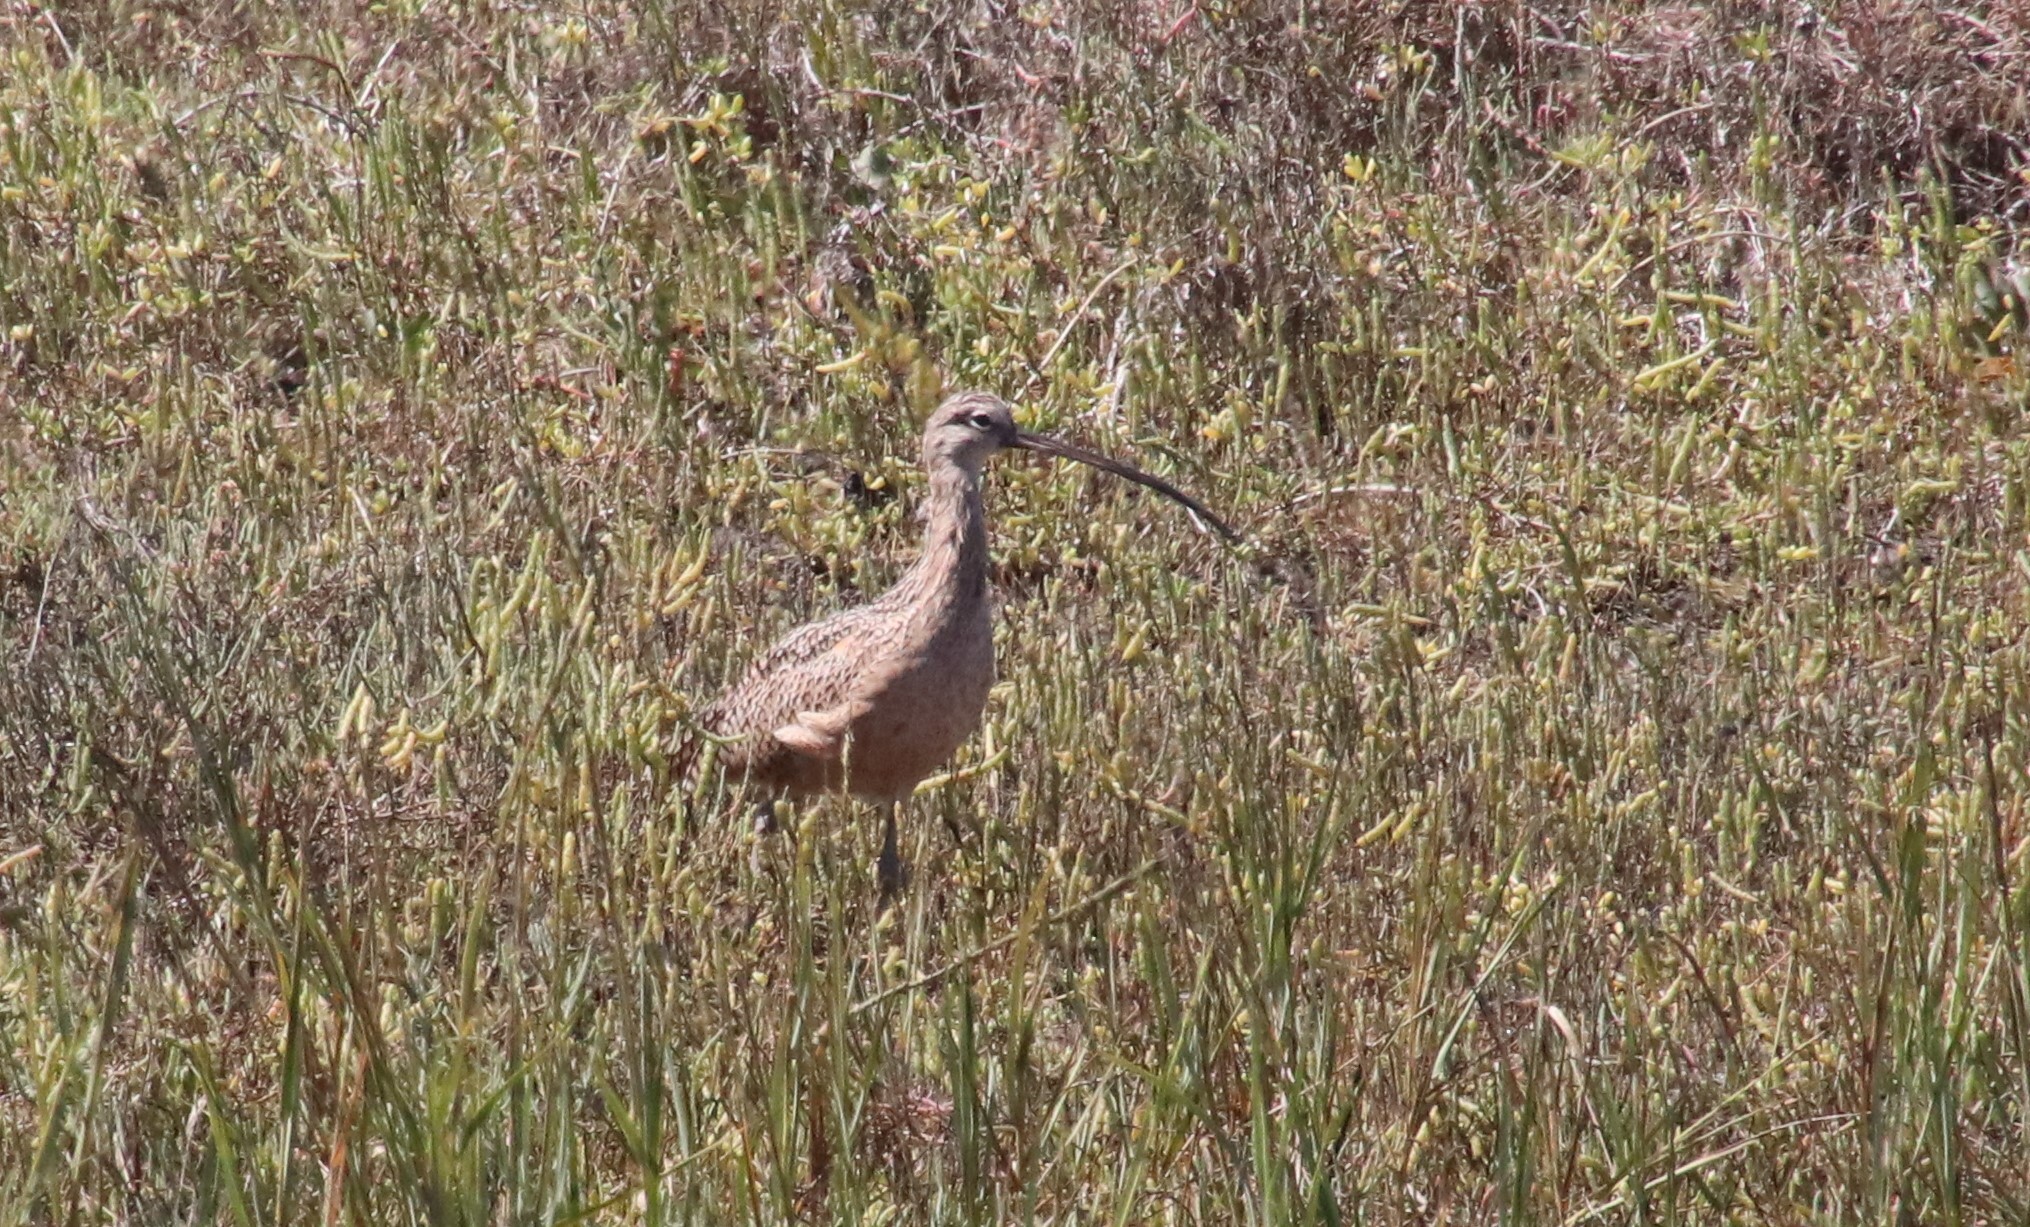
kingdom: Animalia
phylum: Chordata
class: Aves
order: Charadriiformes
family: Scolopacidae
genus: Numenius
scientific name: Numenius americanus
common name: Long-billed curlew
